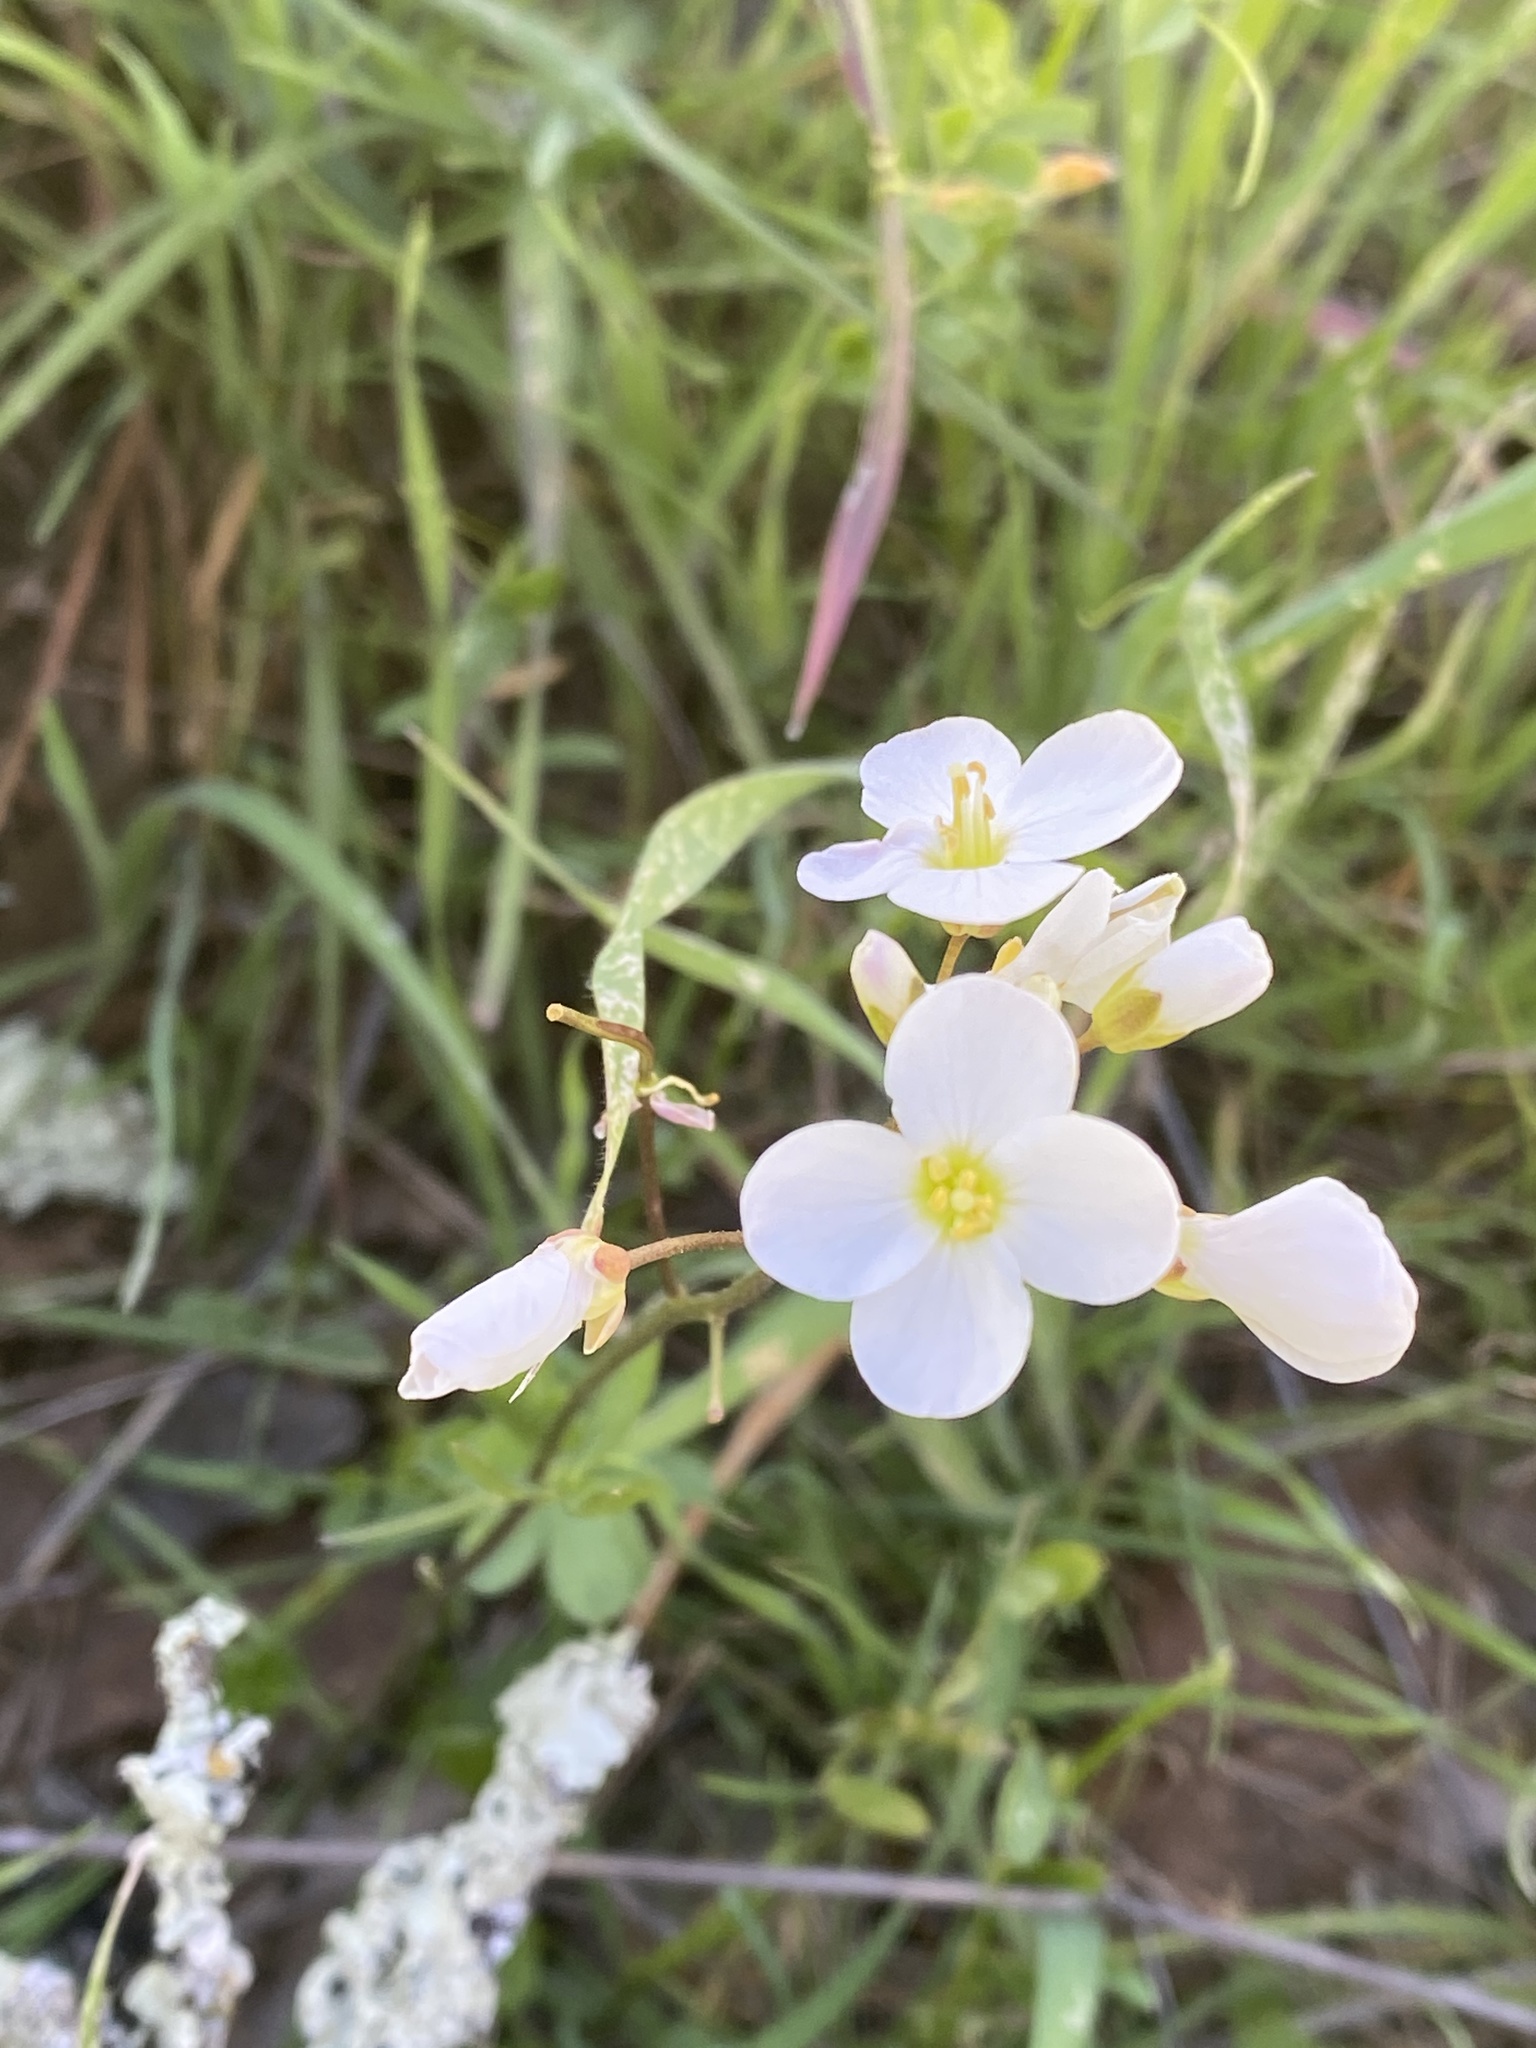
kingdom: Plantae
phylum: Tracheophyta
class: Magnoliopsida
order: Brassicales
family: Brassicaceae
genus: Cardamine
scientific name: Cardamine californica
